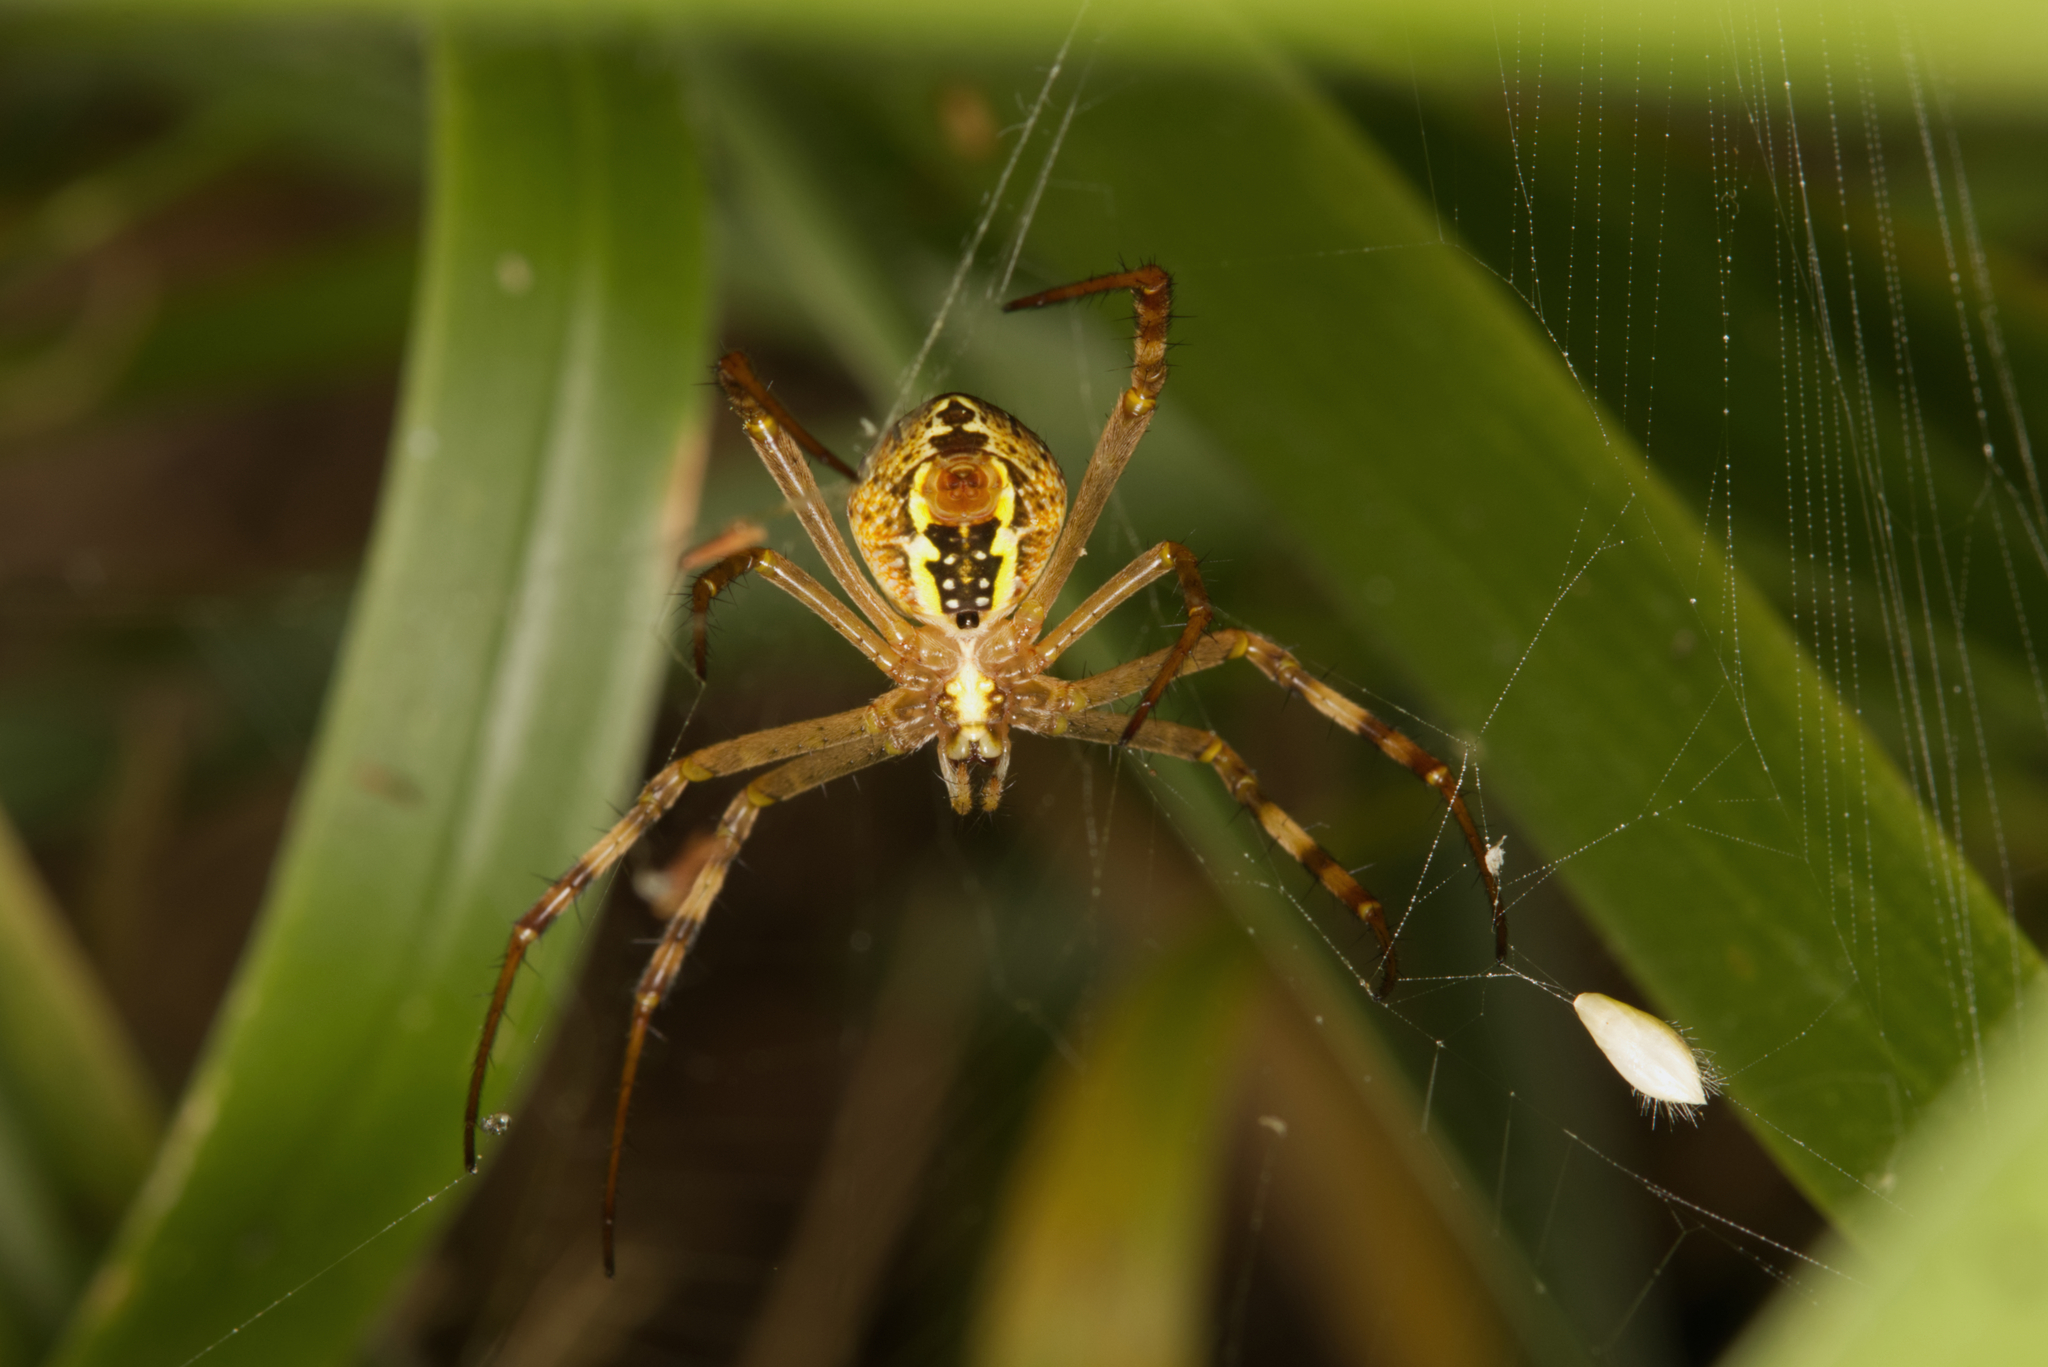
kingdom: Animalia
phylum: Arthropoda
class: Arachnida
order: Araneae
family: Araneidae
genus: Argiope
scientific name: Argiope keyserlingi
